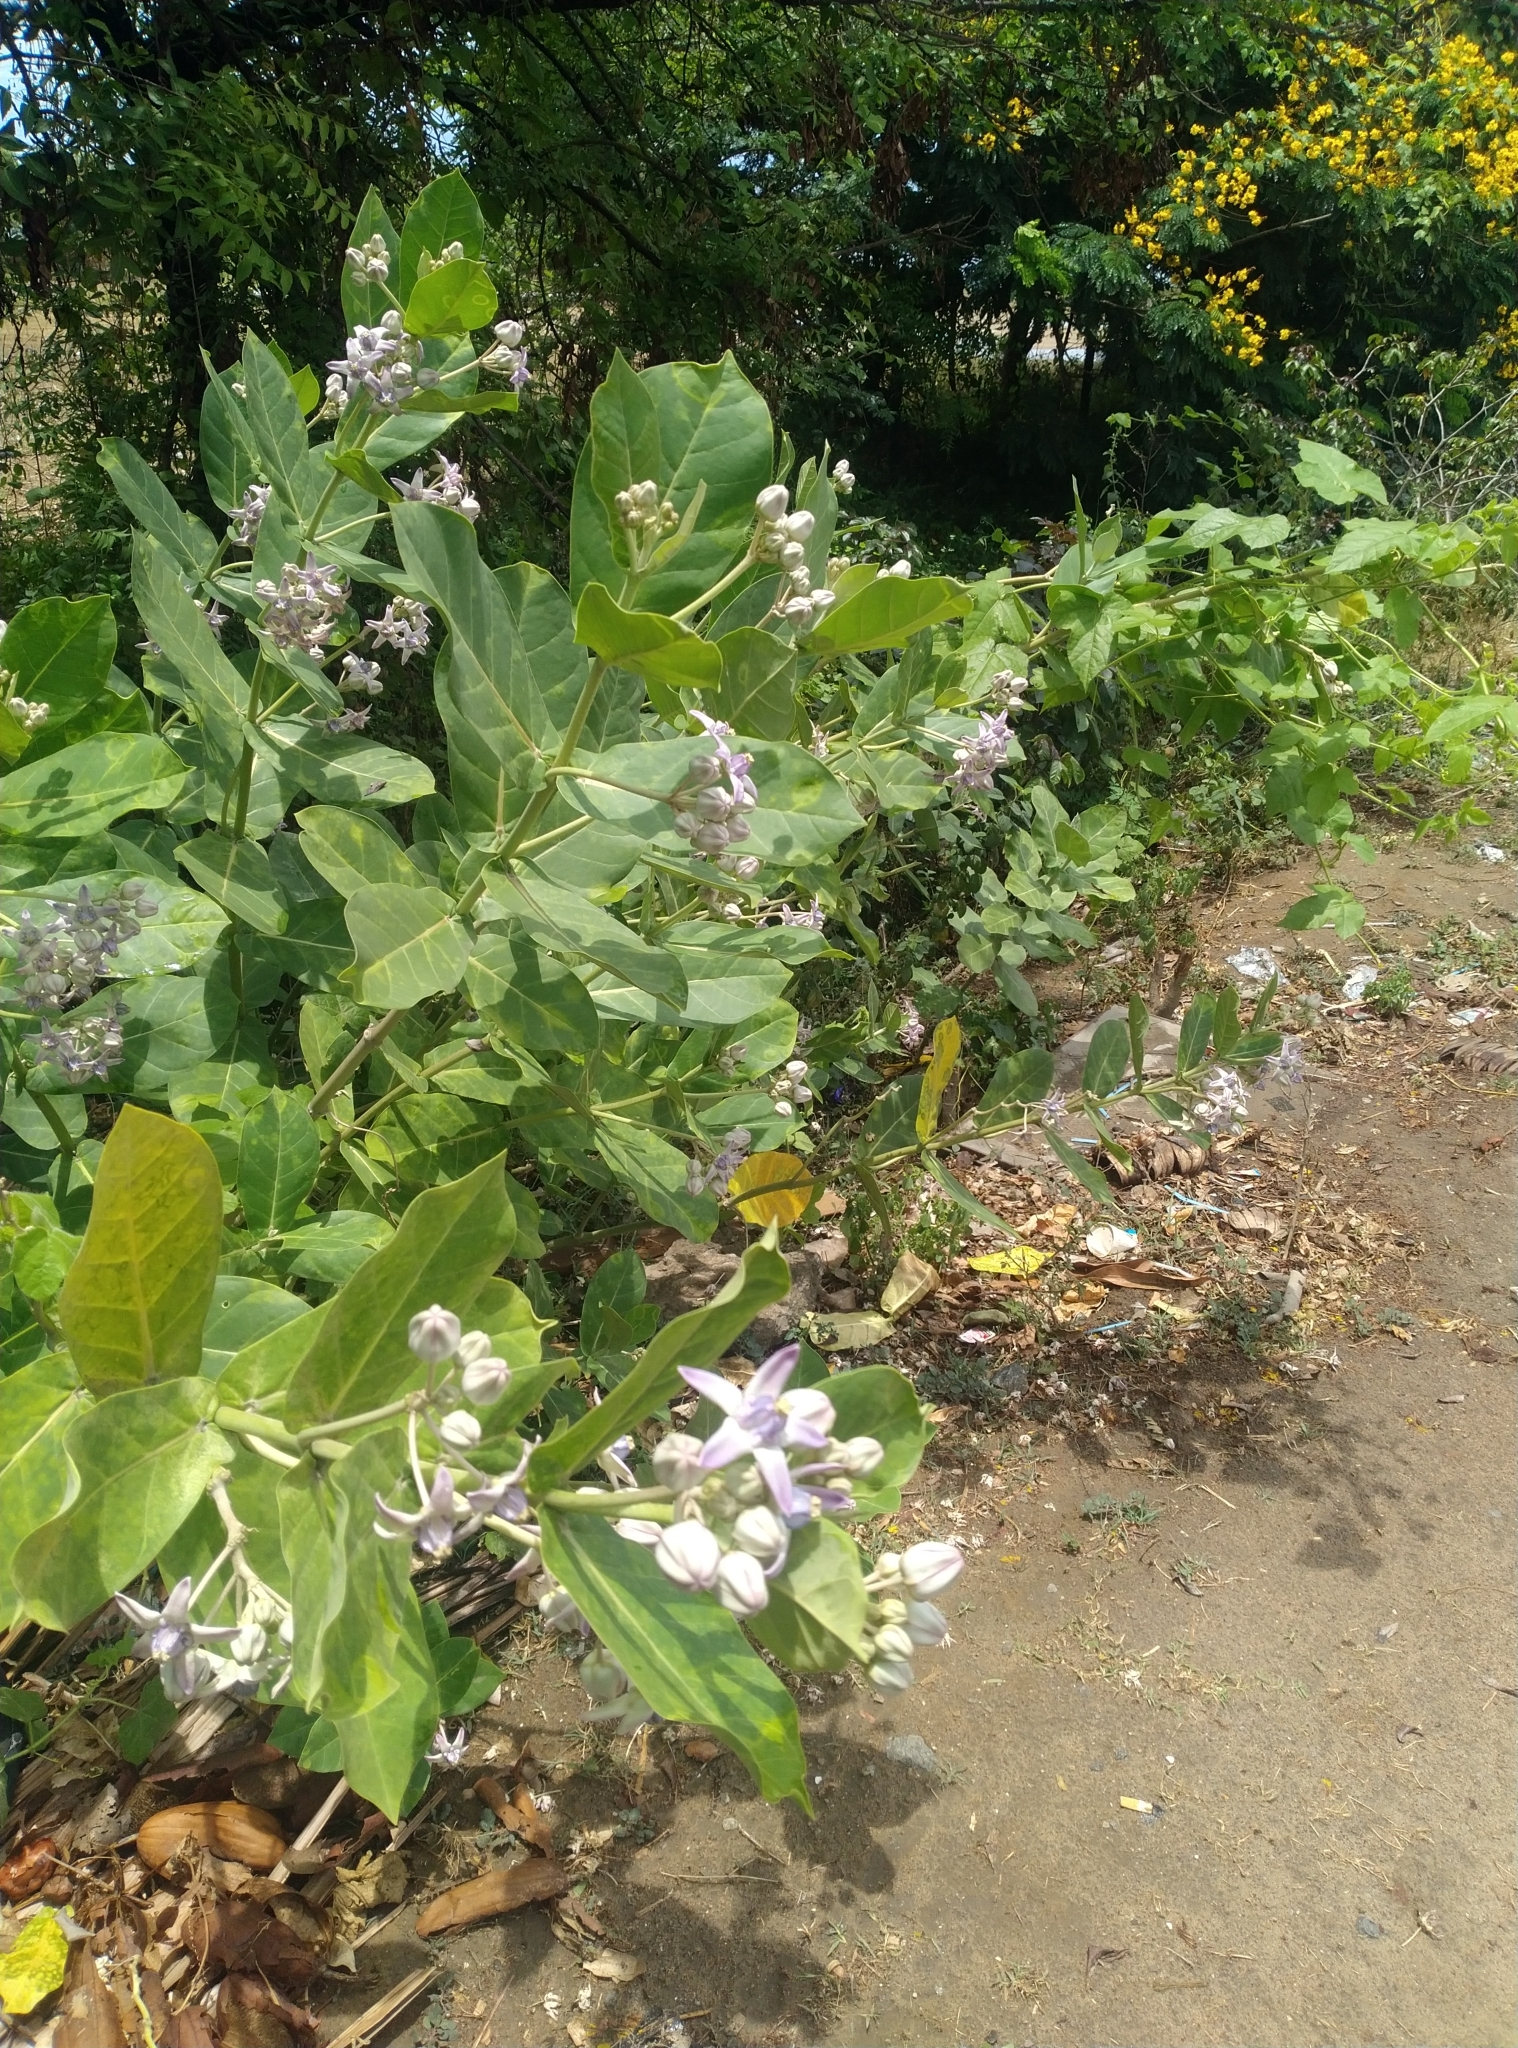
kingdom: Plantae
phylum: Tracheophyta
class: Magnoliopsida
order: Gentianales
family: Apocynaceae
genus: Calotropis
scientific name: Calotropis gigantea
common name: Crown flower
